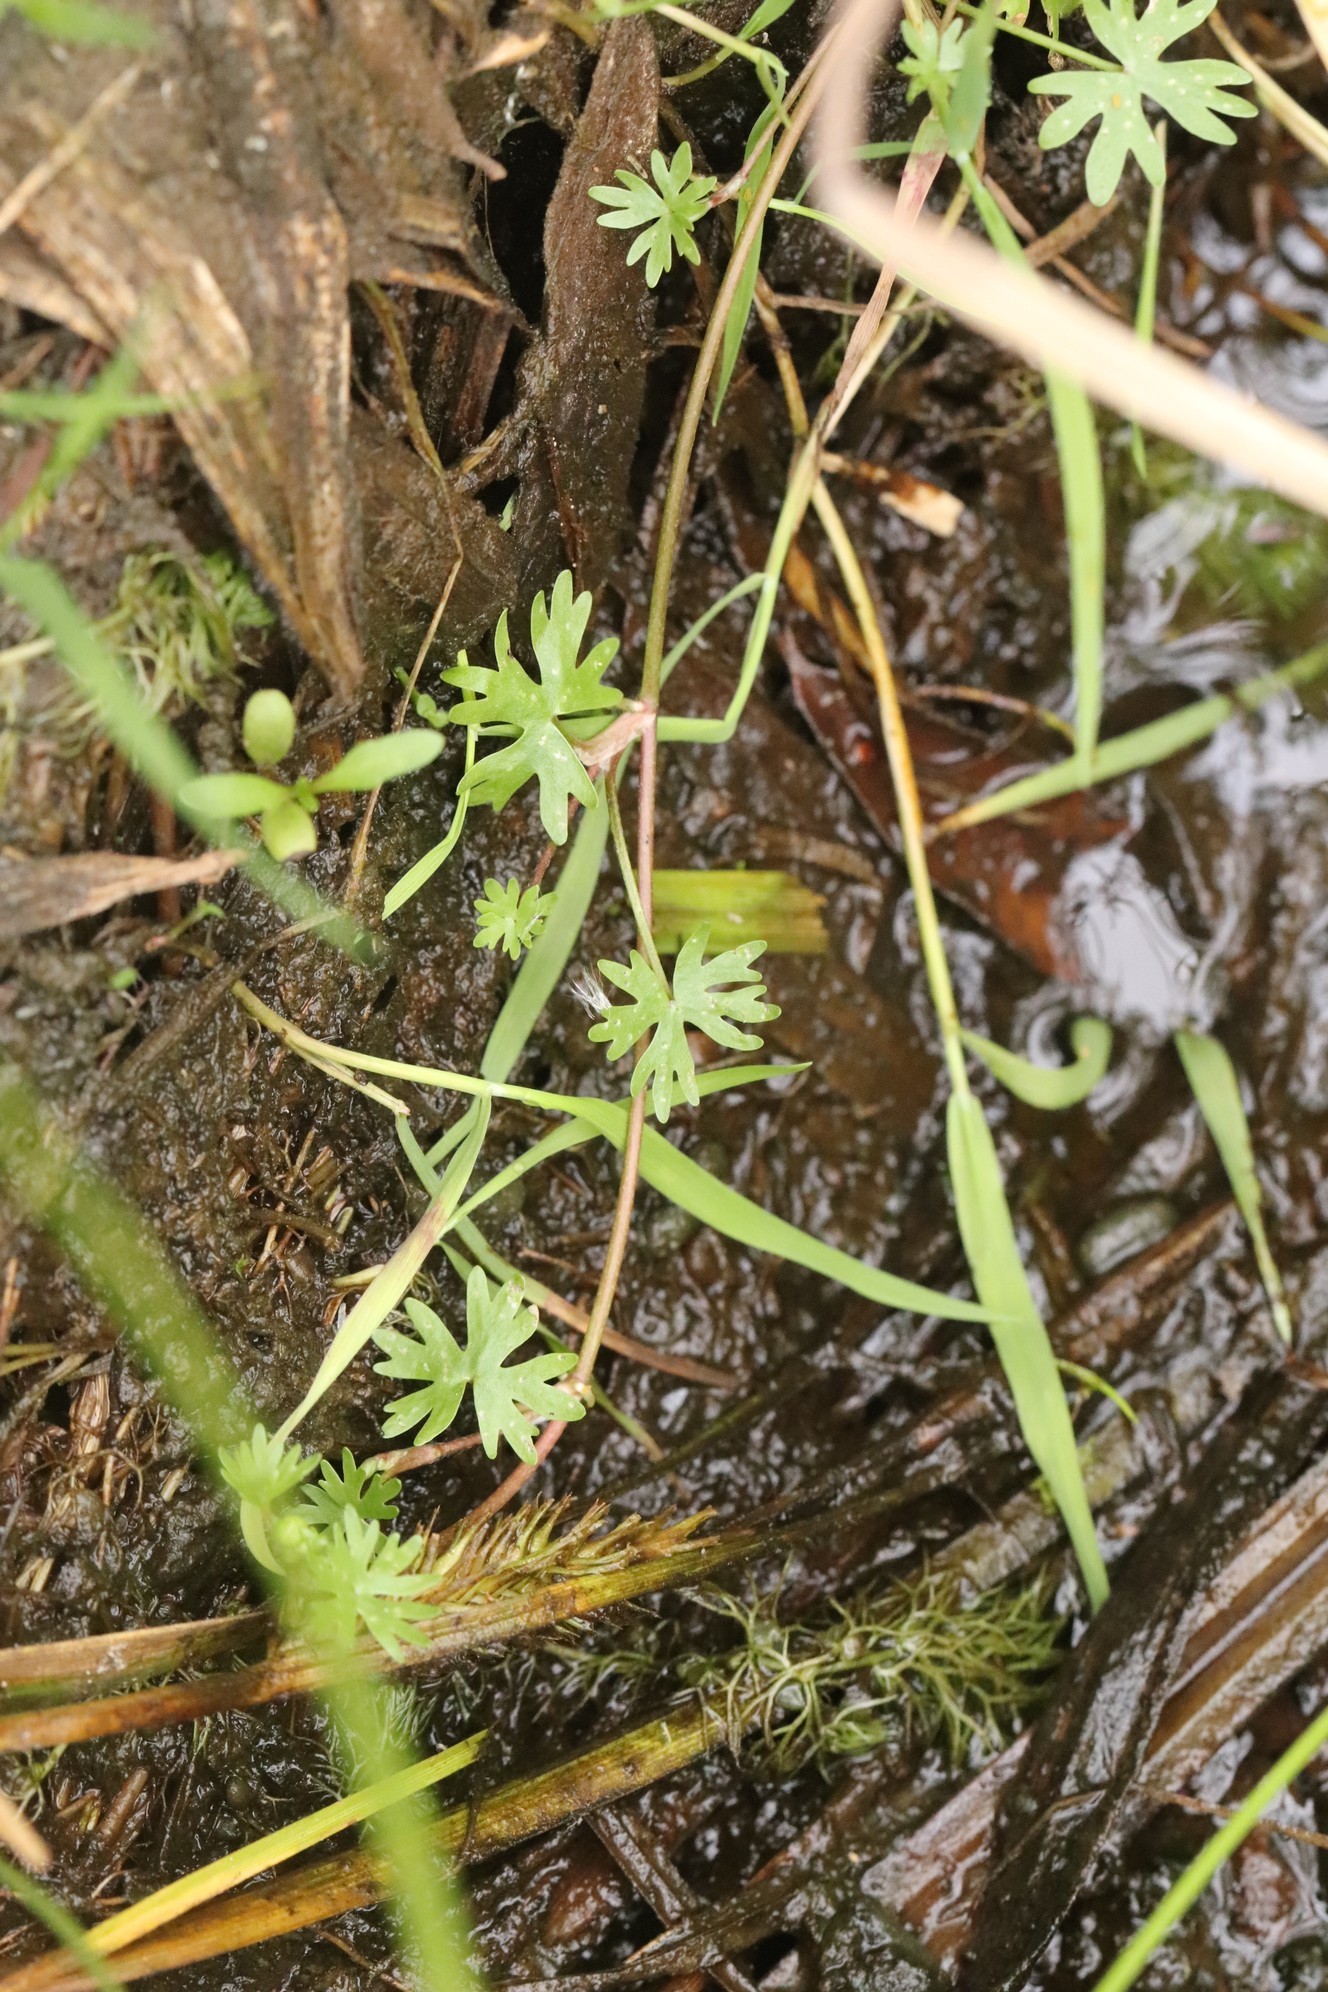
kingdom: Plantae
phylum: Tracheophyta
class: Magnoliopsida
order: Ranunculales
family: Ranunculaceae
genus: Ranunculus
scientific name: Ranunculus gmelinii
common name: Gmelin's buttercup
